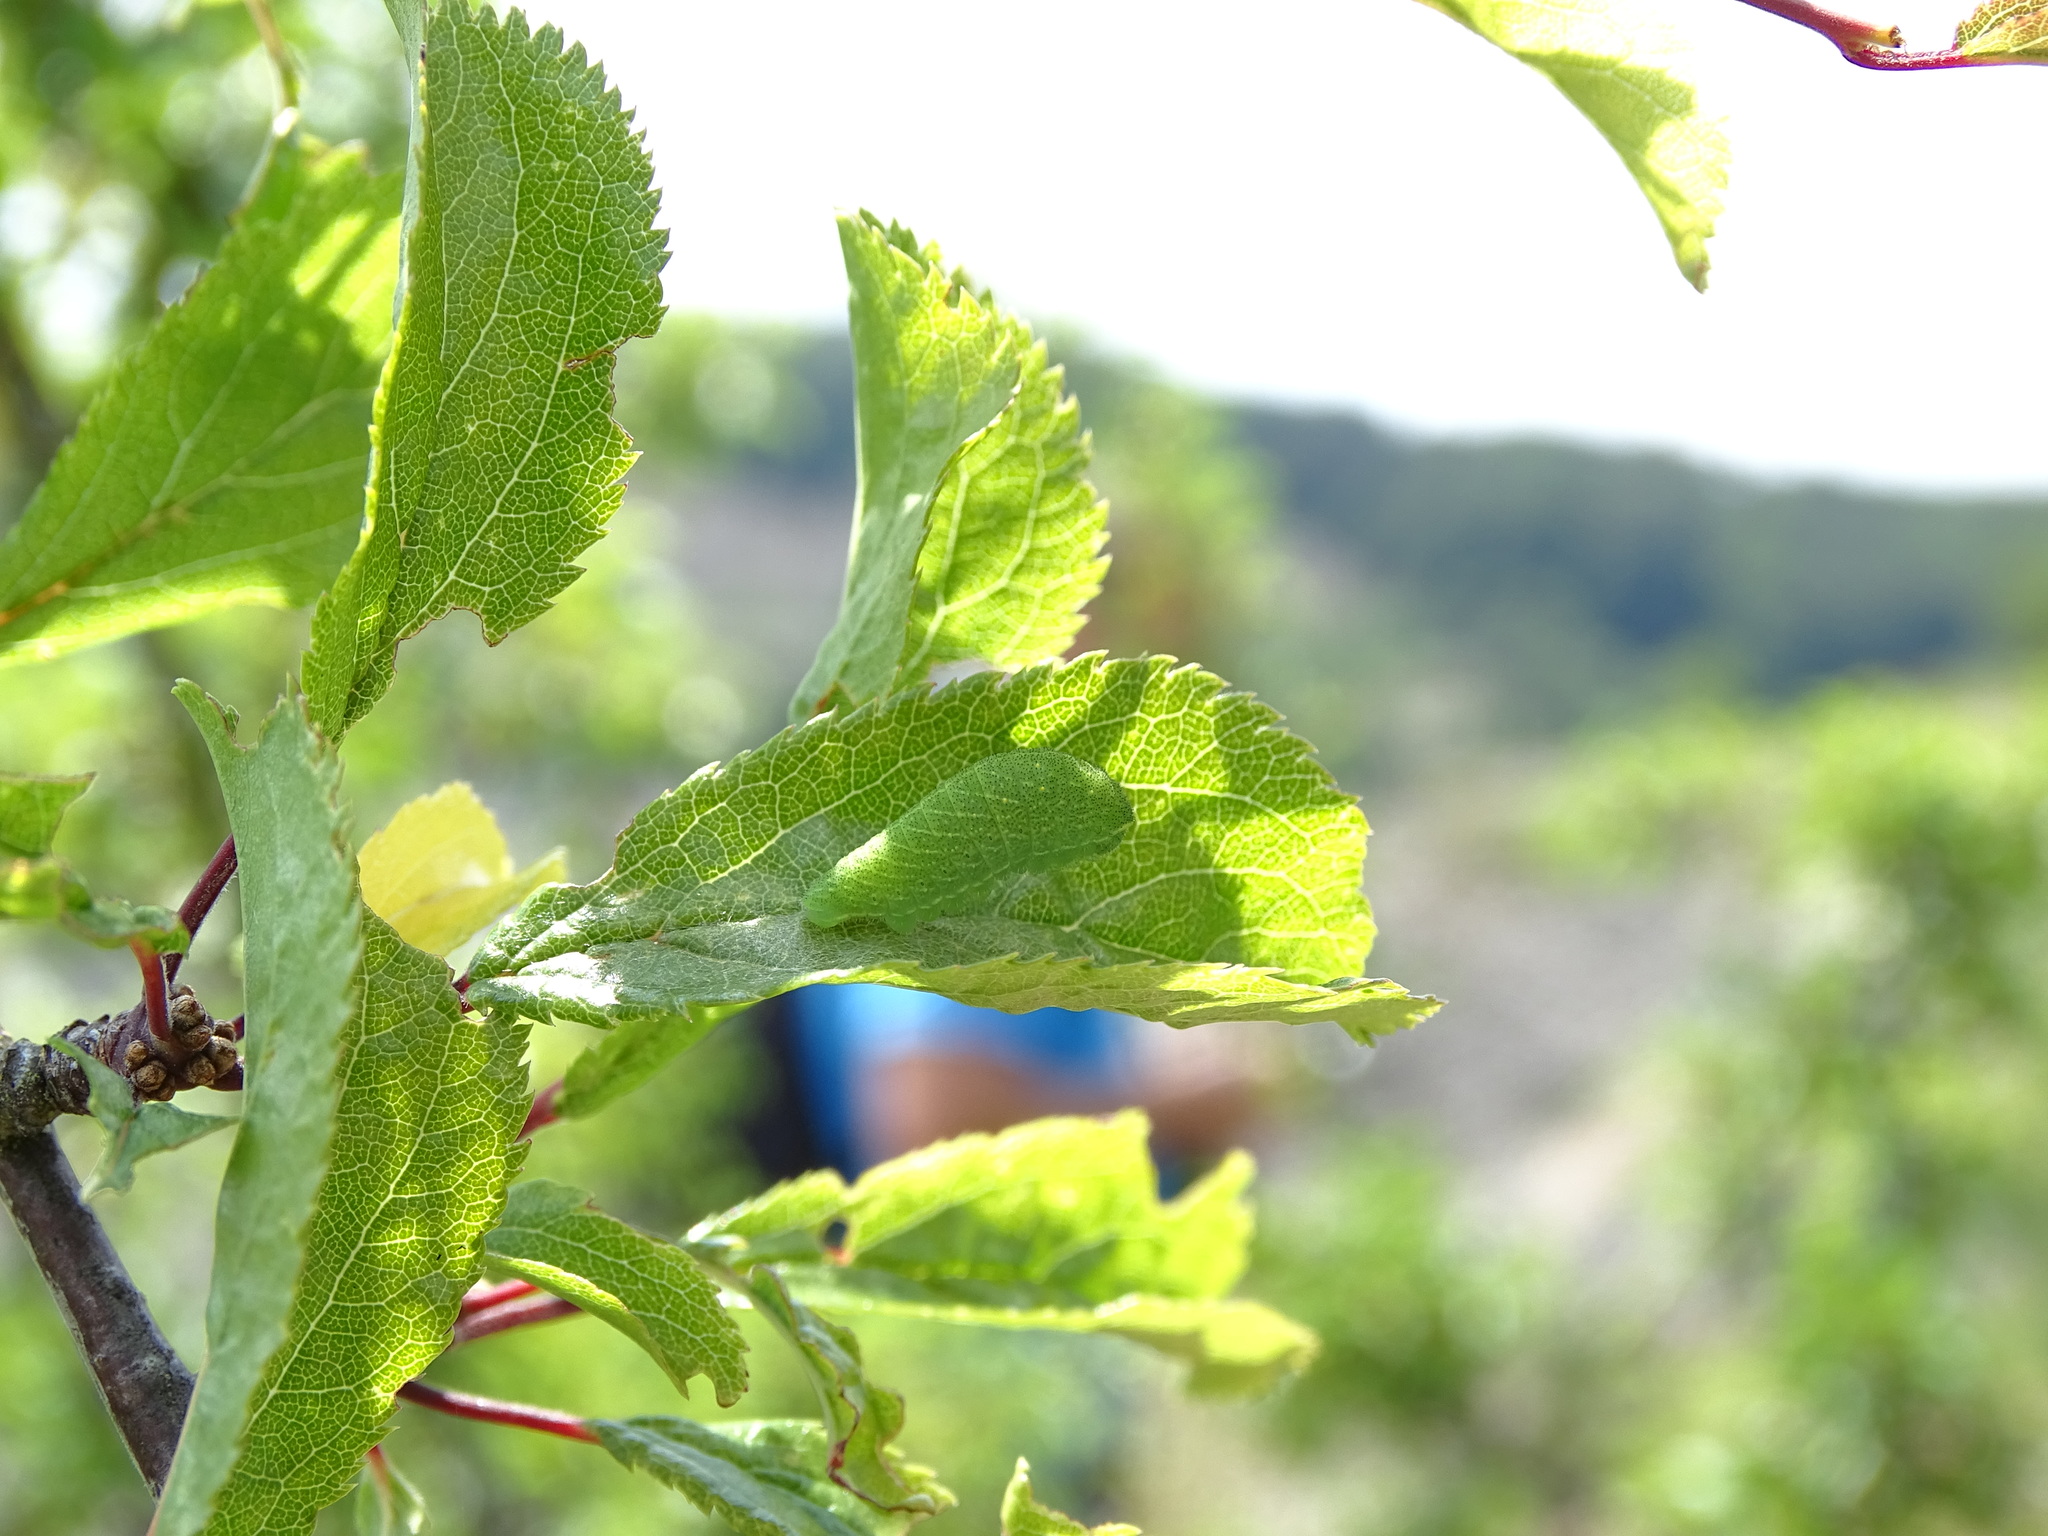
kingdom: Animalia
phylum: Arthropoda
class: Insecta
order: Lepidoptera
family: Papilionidae
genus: Iphiclides
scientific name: Iphiclides podalirius
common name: Scarce swallowtail
